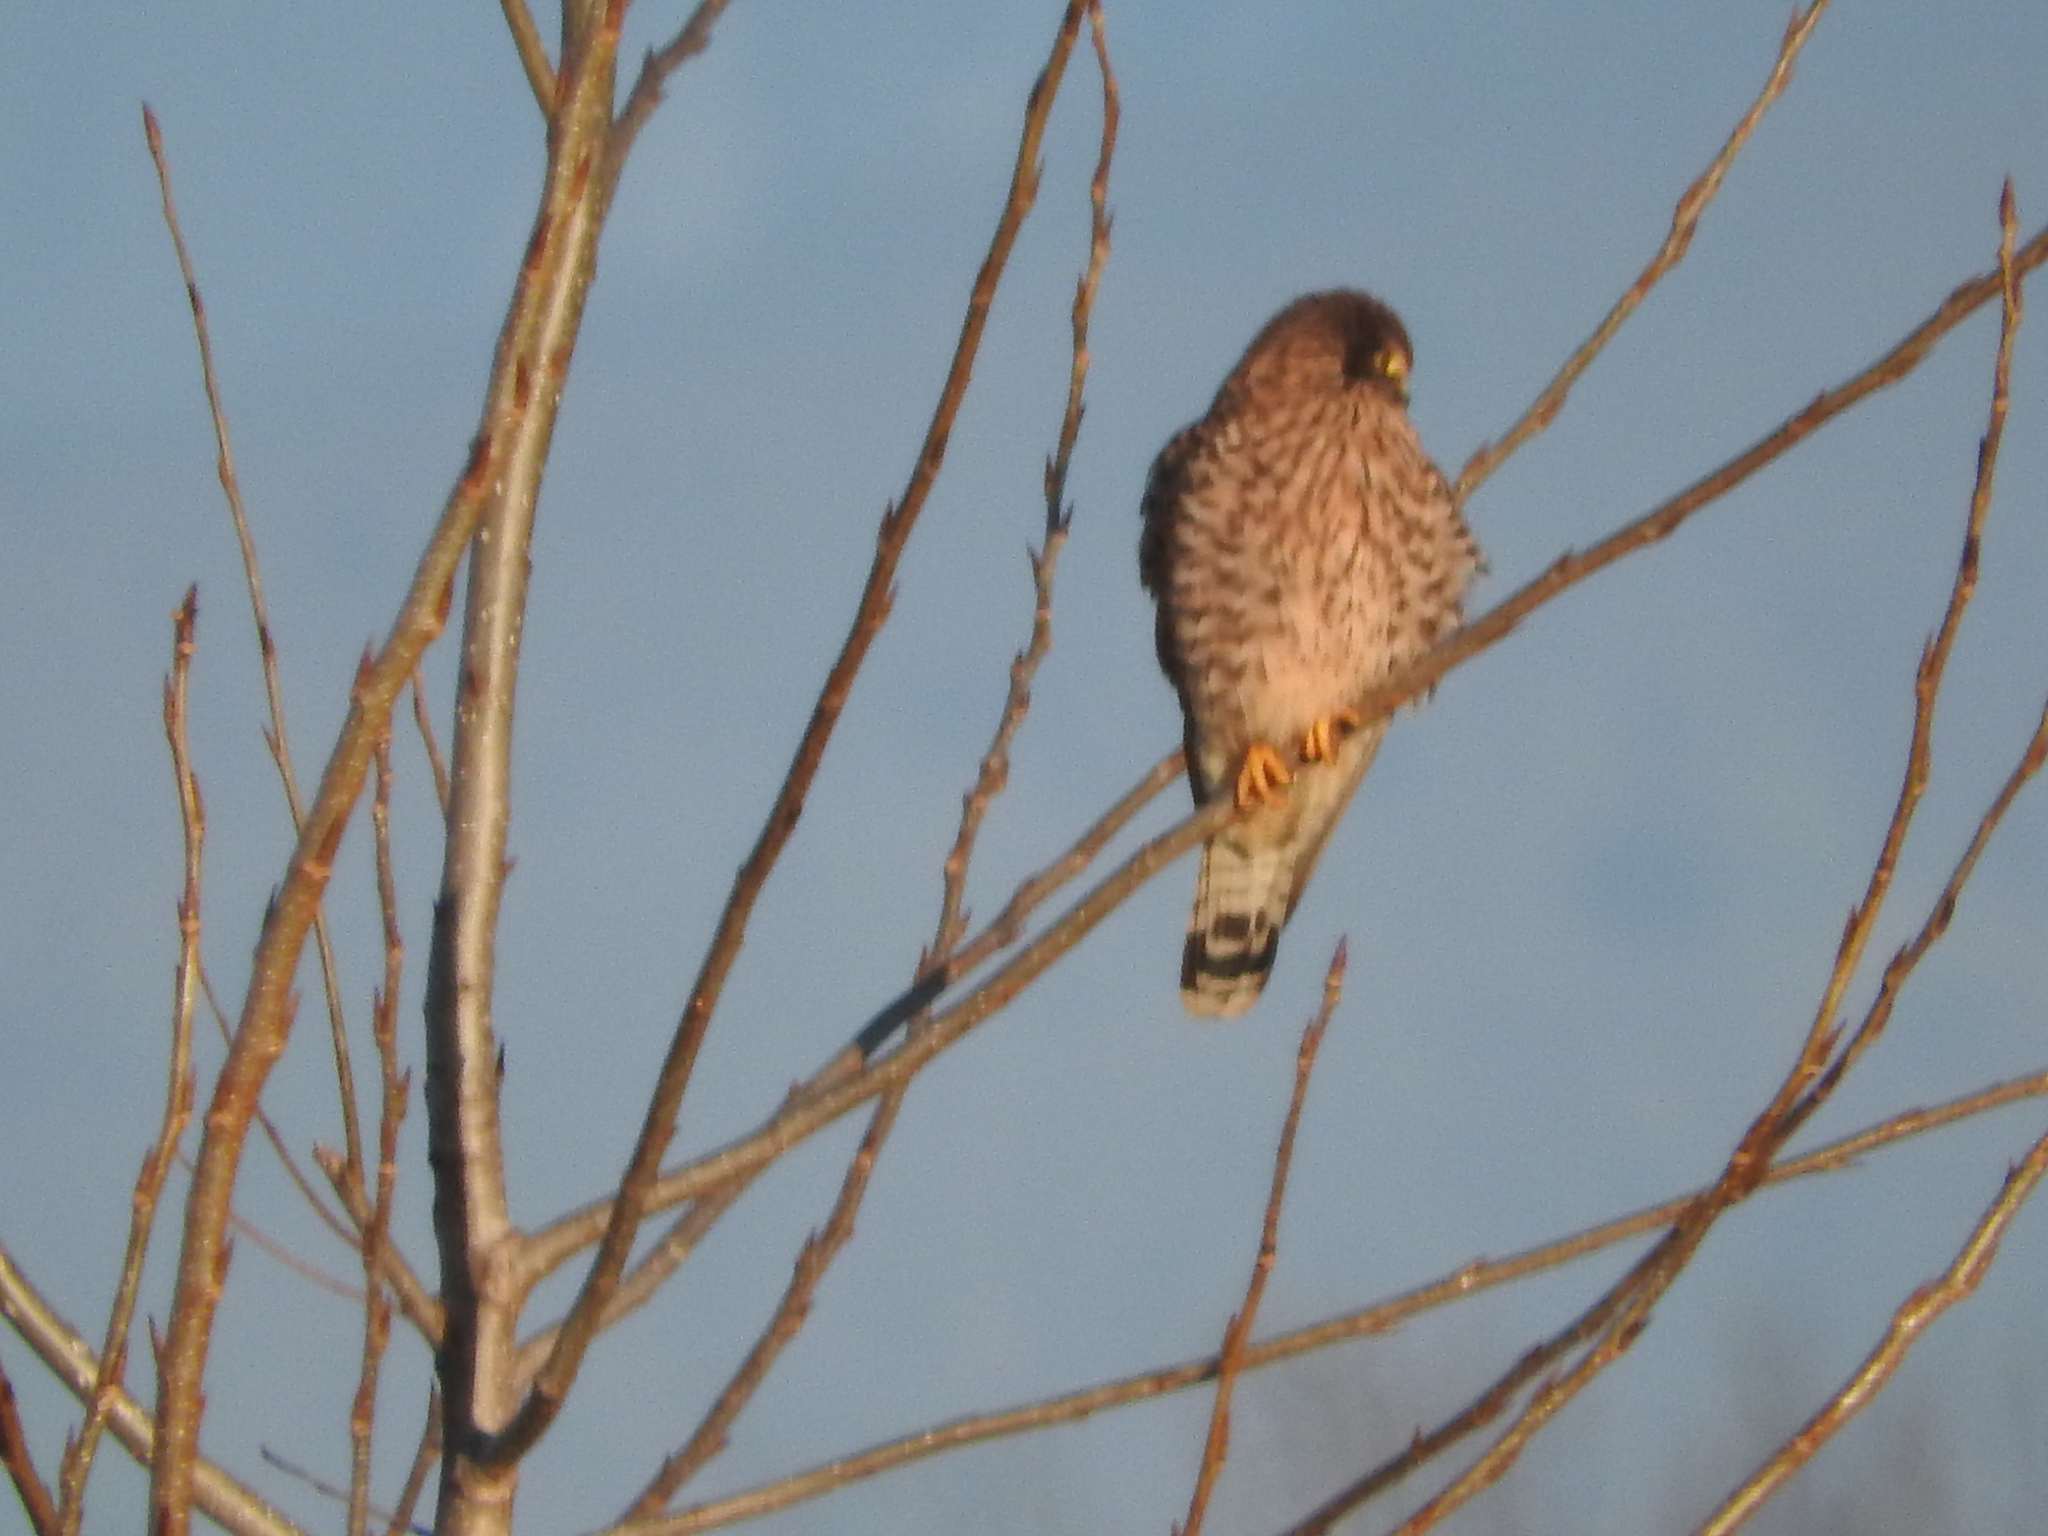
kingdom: Animalia
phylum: Chordata
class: Aves
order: Falconiformes
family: Falconidae
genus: Falco
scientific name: Falco tinnunculus
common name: Common kestrel
